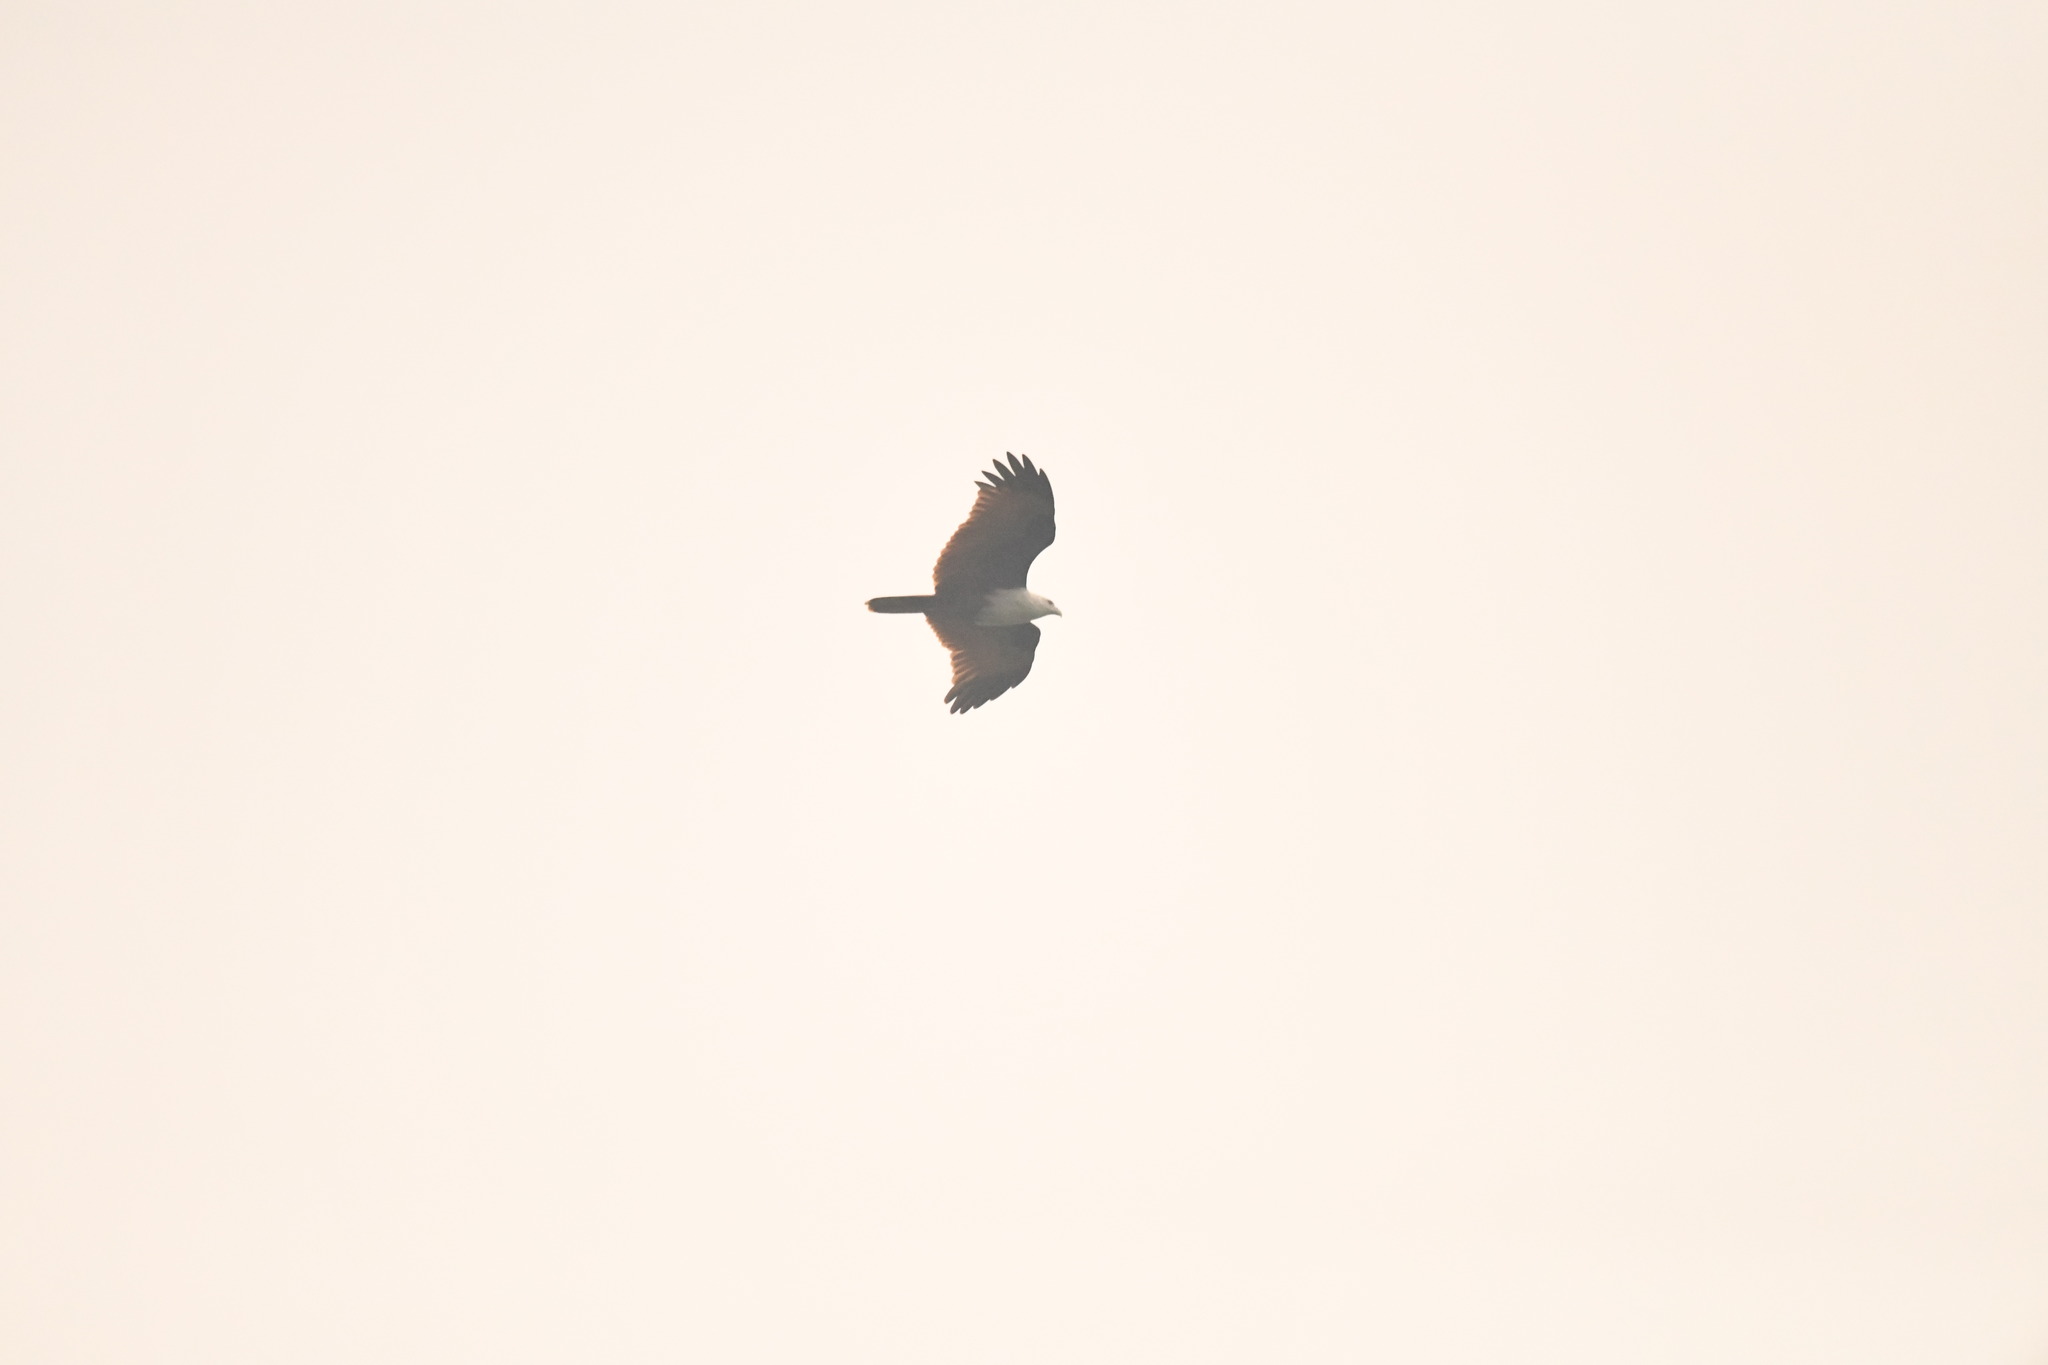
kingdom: Animalia
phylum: Chordata
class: Aves
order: Accipitriformes
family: Accipitridae
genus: Haliastur
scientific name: Haliastur indus
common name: Brahminy kite
